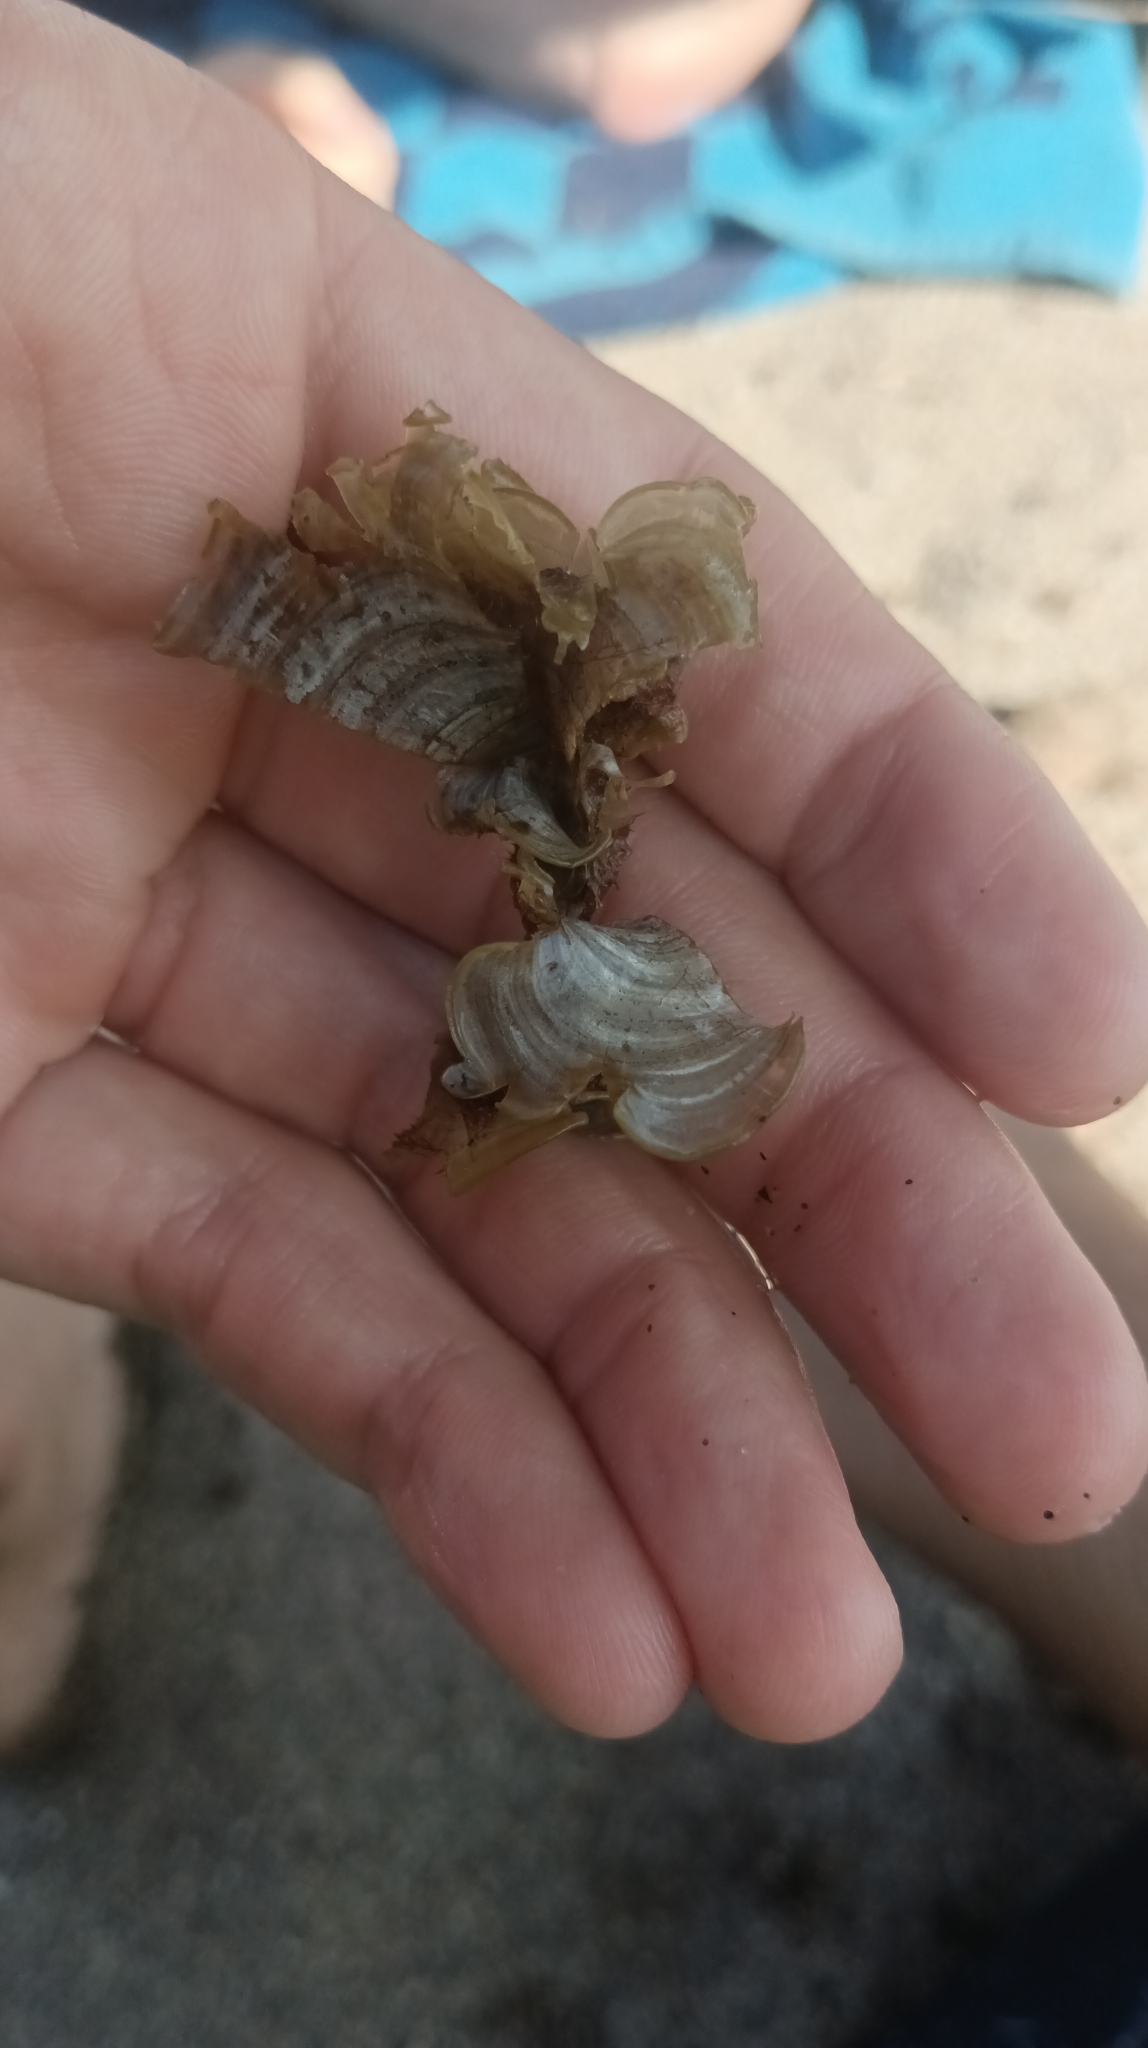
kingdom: Chromista
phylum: Ochrophyta
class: Phaeophyceae
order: Dictyotales
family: Dictyotaceae
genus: Padina
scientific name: Padina pavonica
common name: Turkey feather alga
